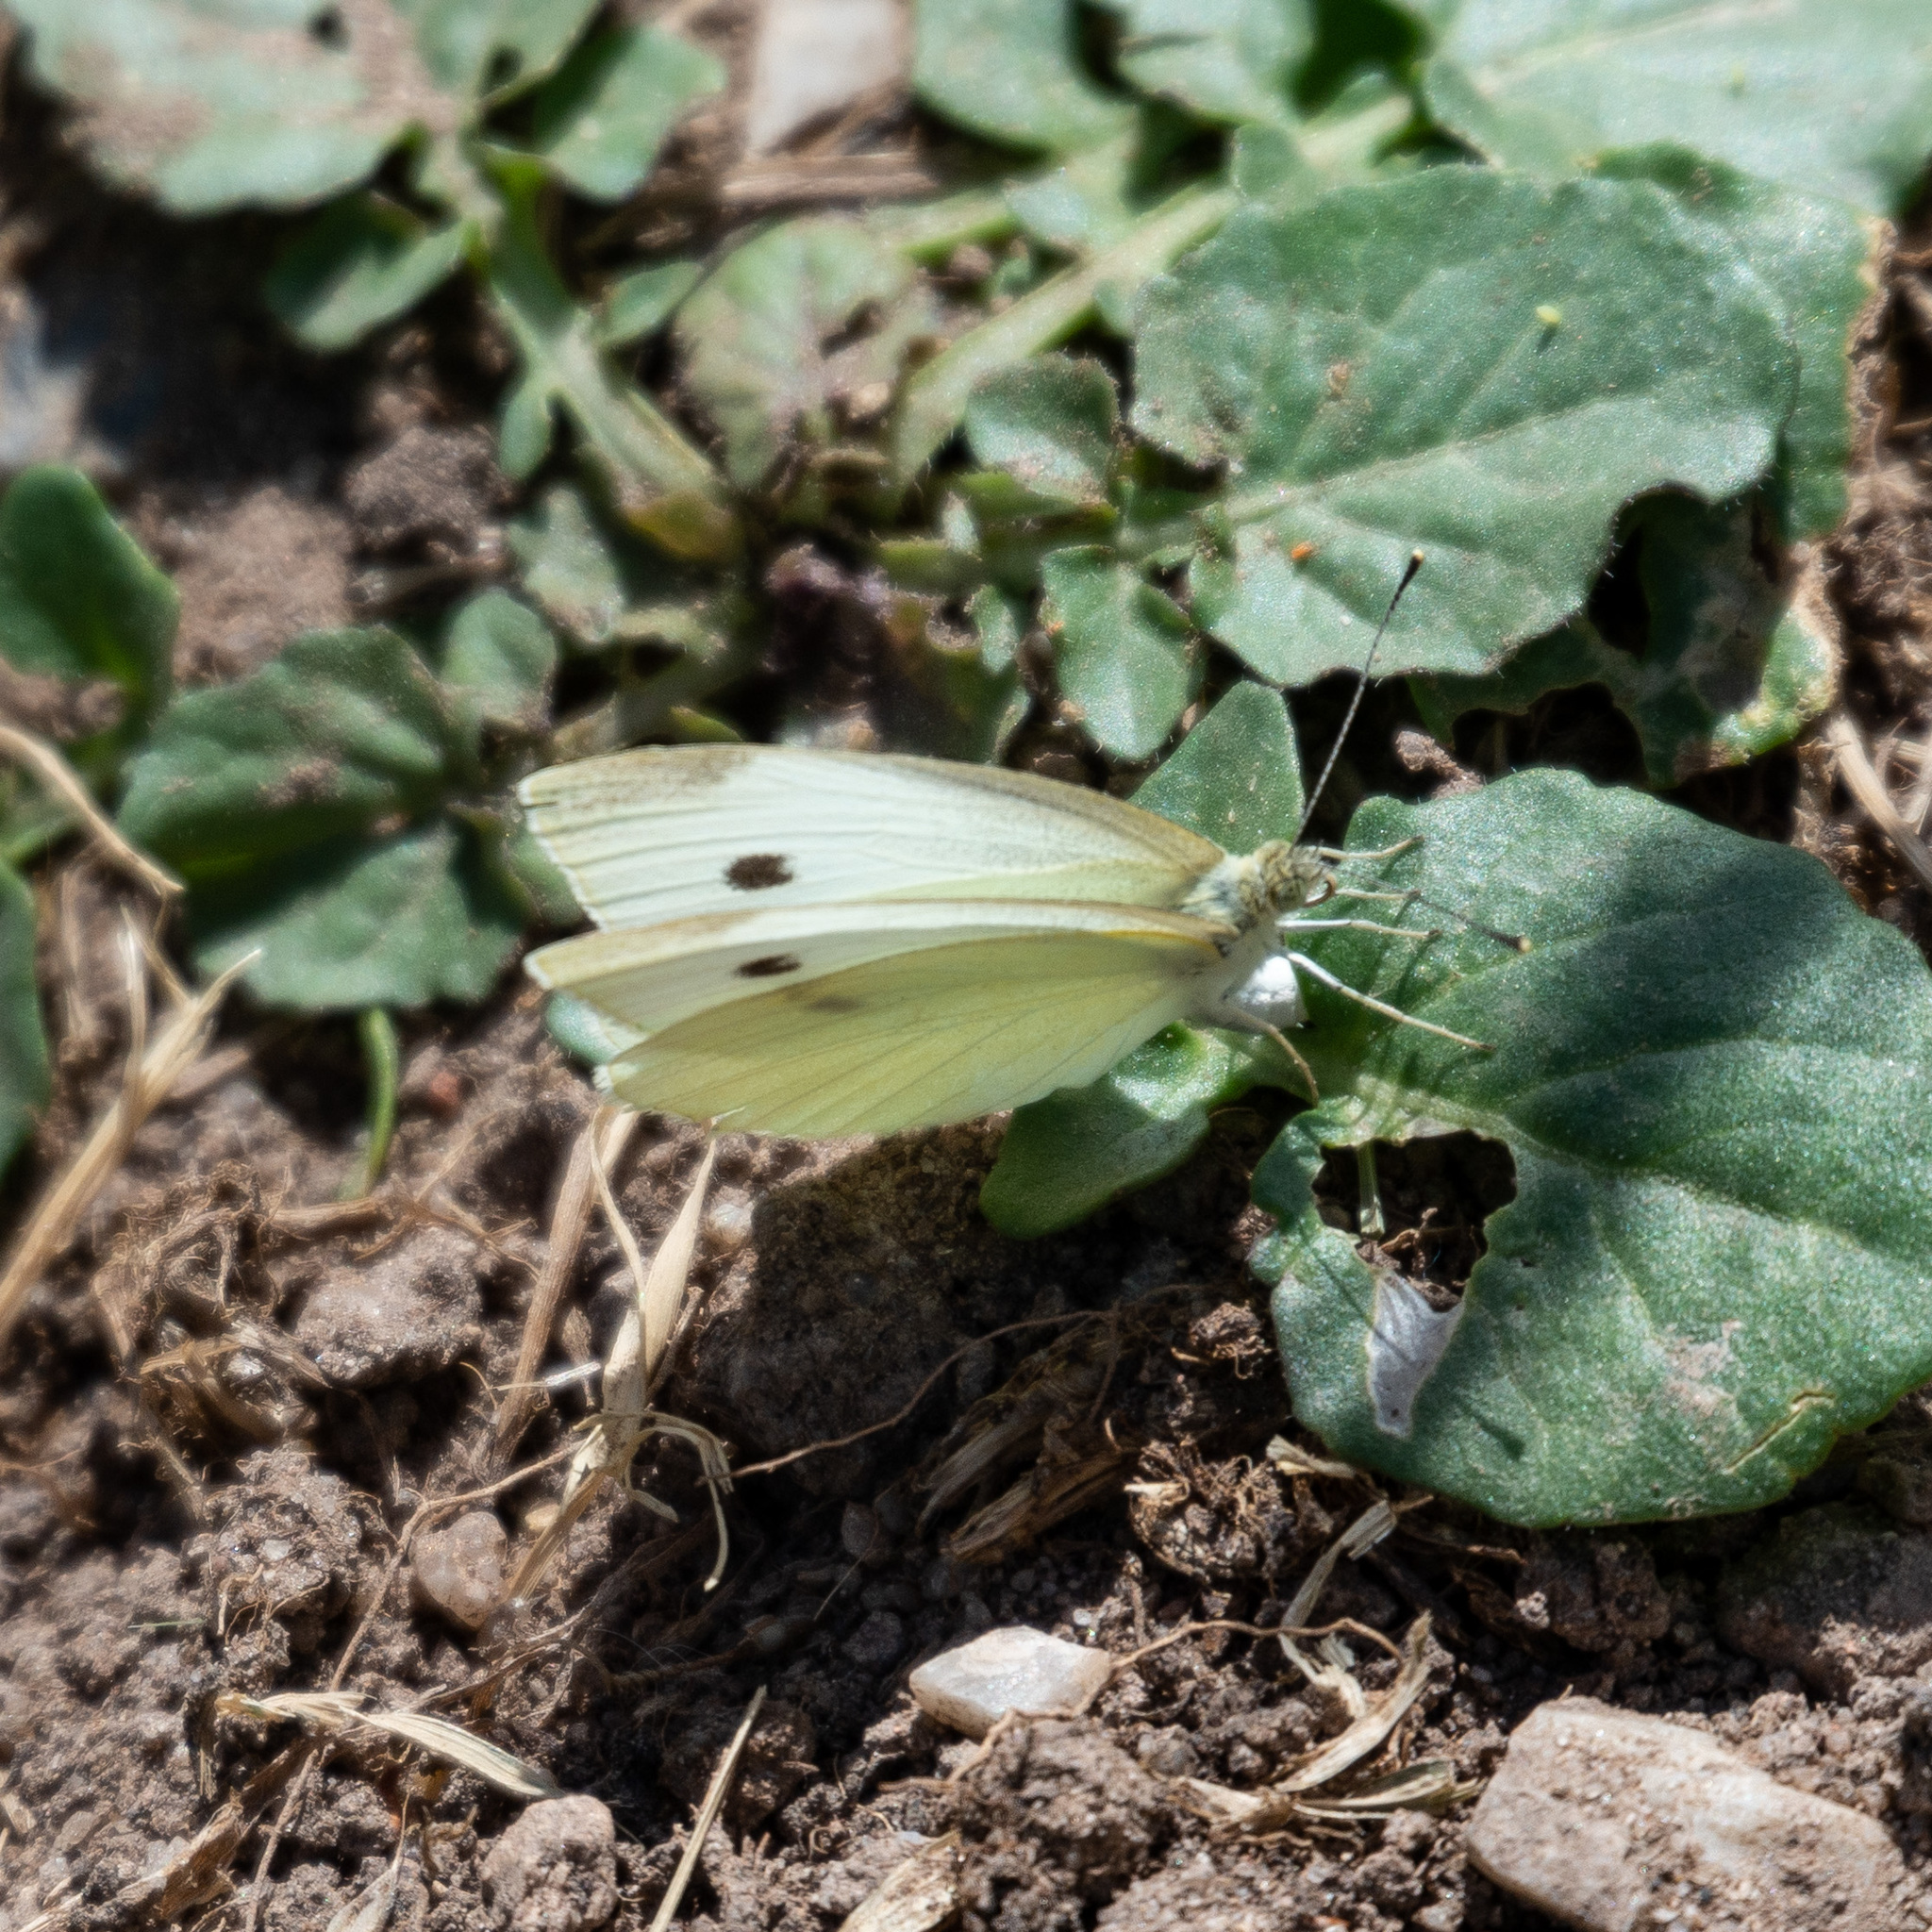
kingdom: Animalia
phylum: Arthropoda
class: Insecta
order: Lepidoptera
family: Pieridae
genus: Pieris
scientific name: Pieris rapae
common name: Small white
